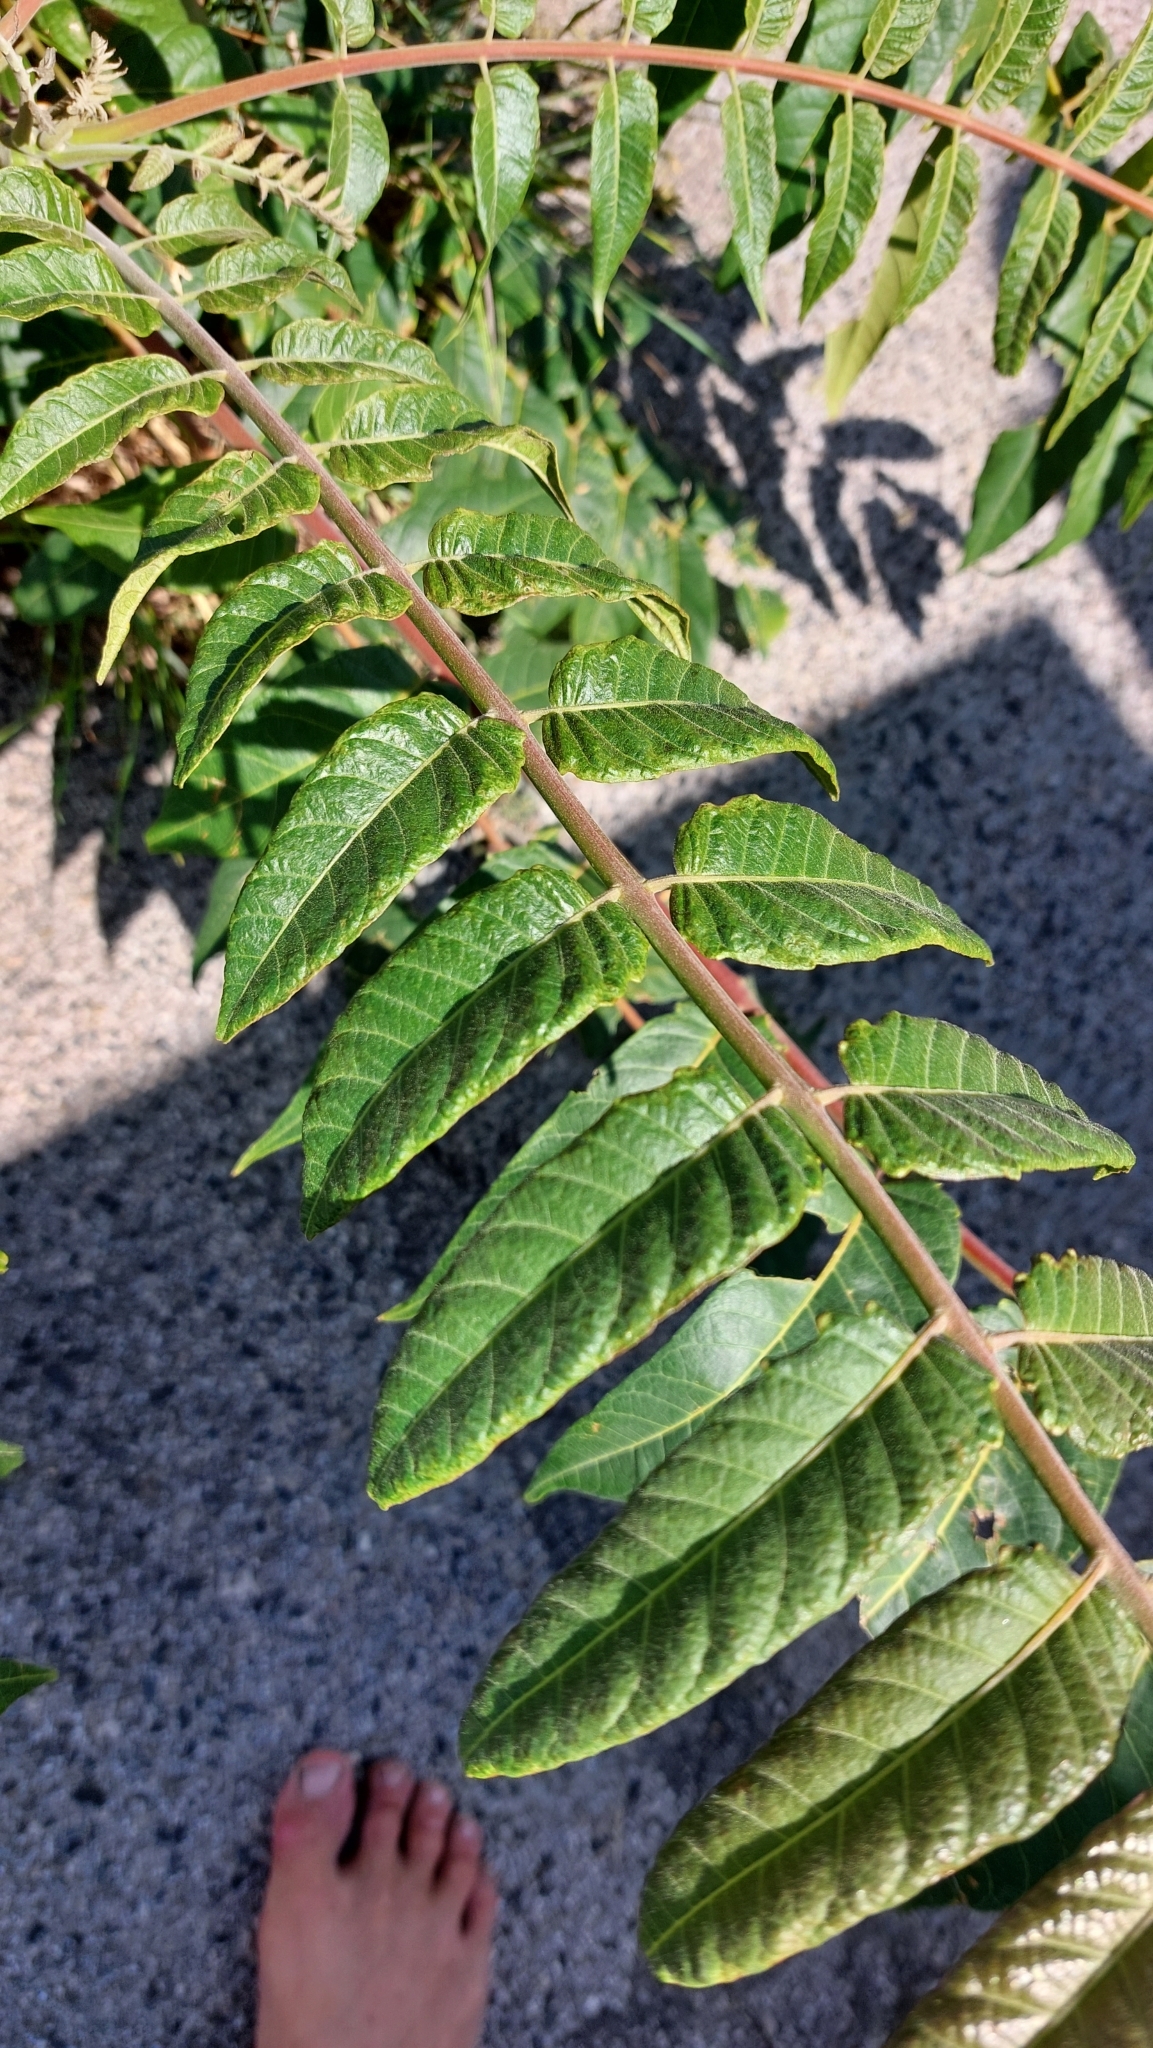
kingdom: Plantae
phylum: Tracheophyta
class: Magnoliopsida
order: Sapindales
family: Simaroubaceae
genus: Ailanthus
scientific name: Ailanthus altissima
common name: Tree-of-heaven
